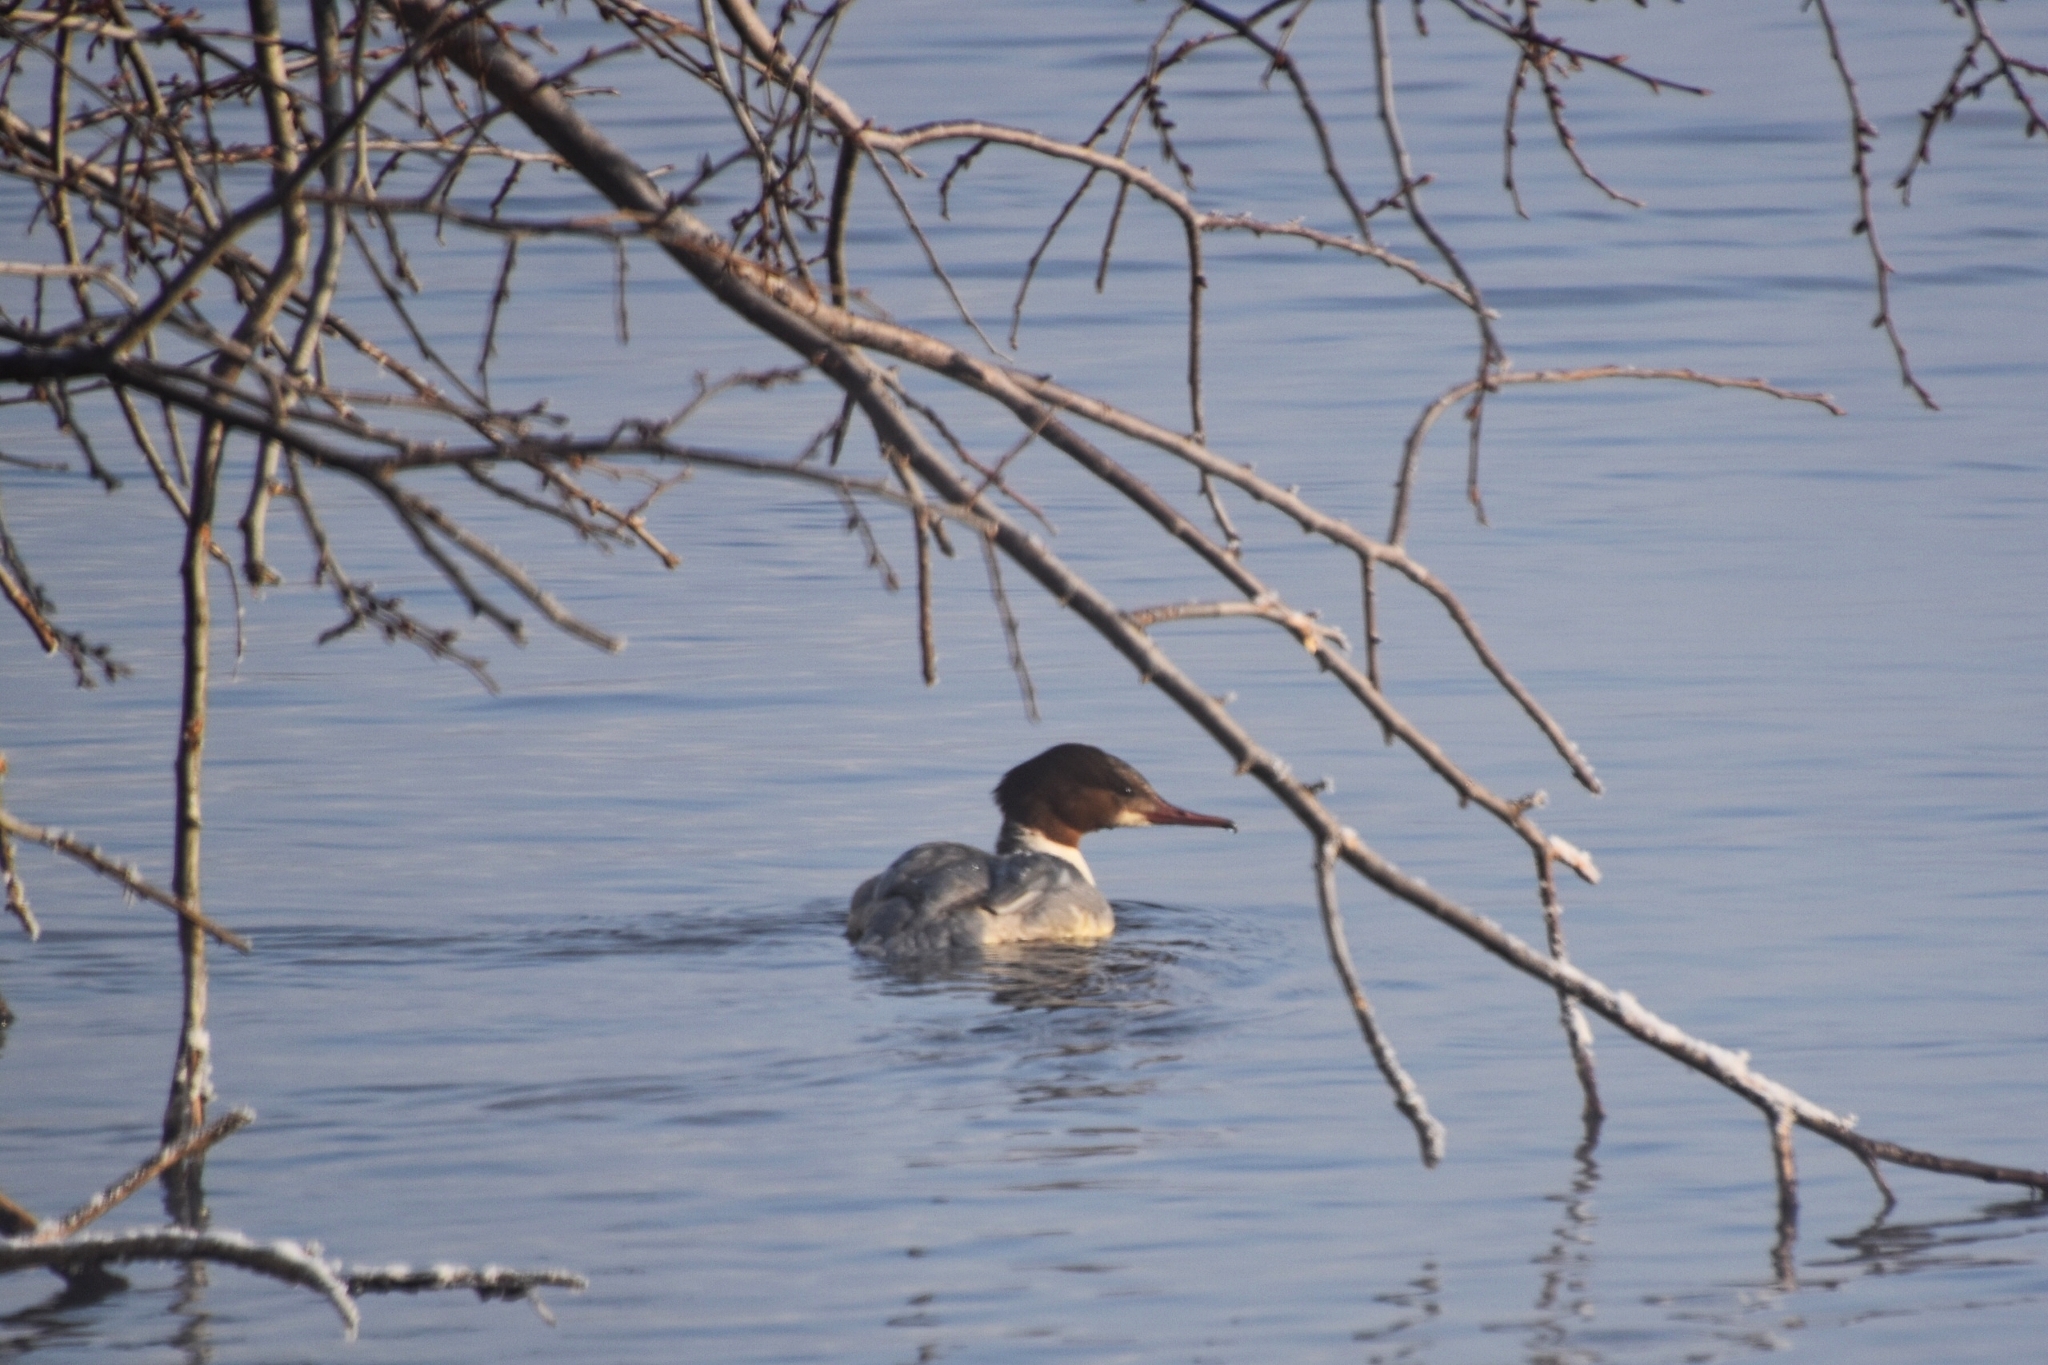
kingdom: Animalia
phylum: Chordata
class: Aves
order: Anseriformes
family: Anatidae
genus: Mergus
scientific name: Mergus merganser
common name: Common merganser
